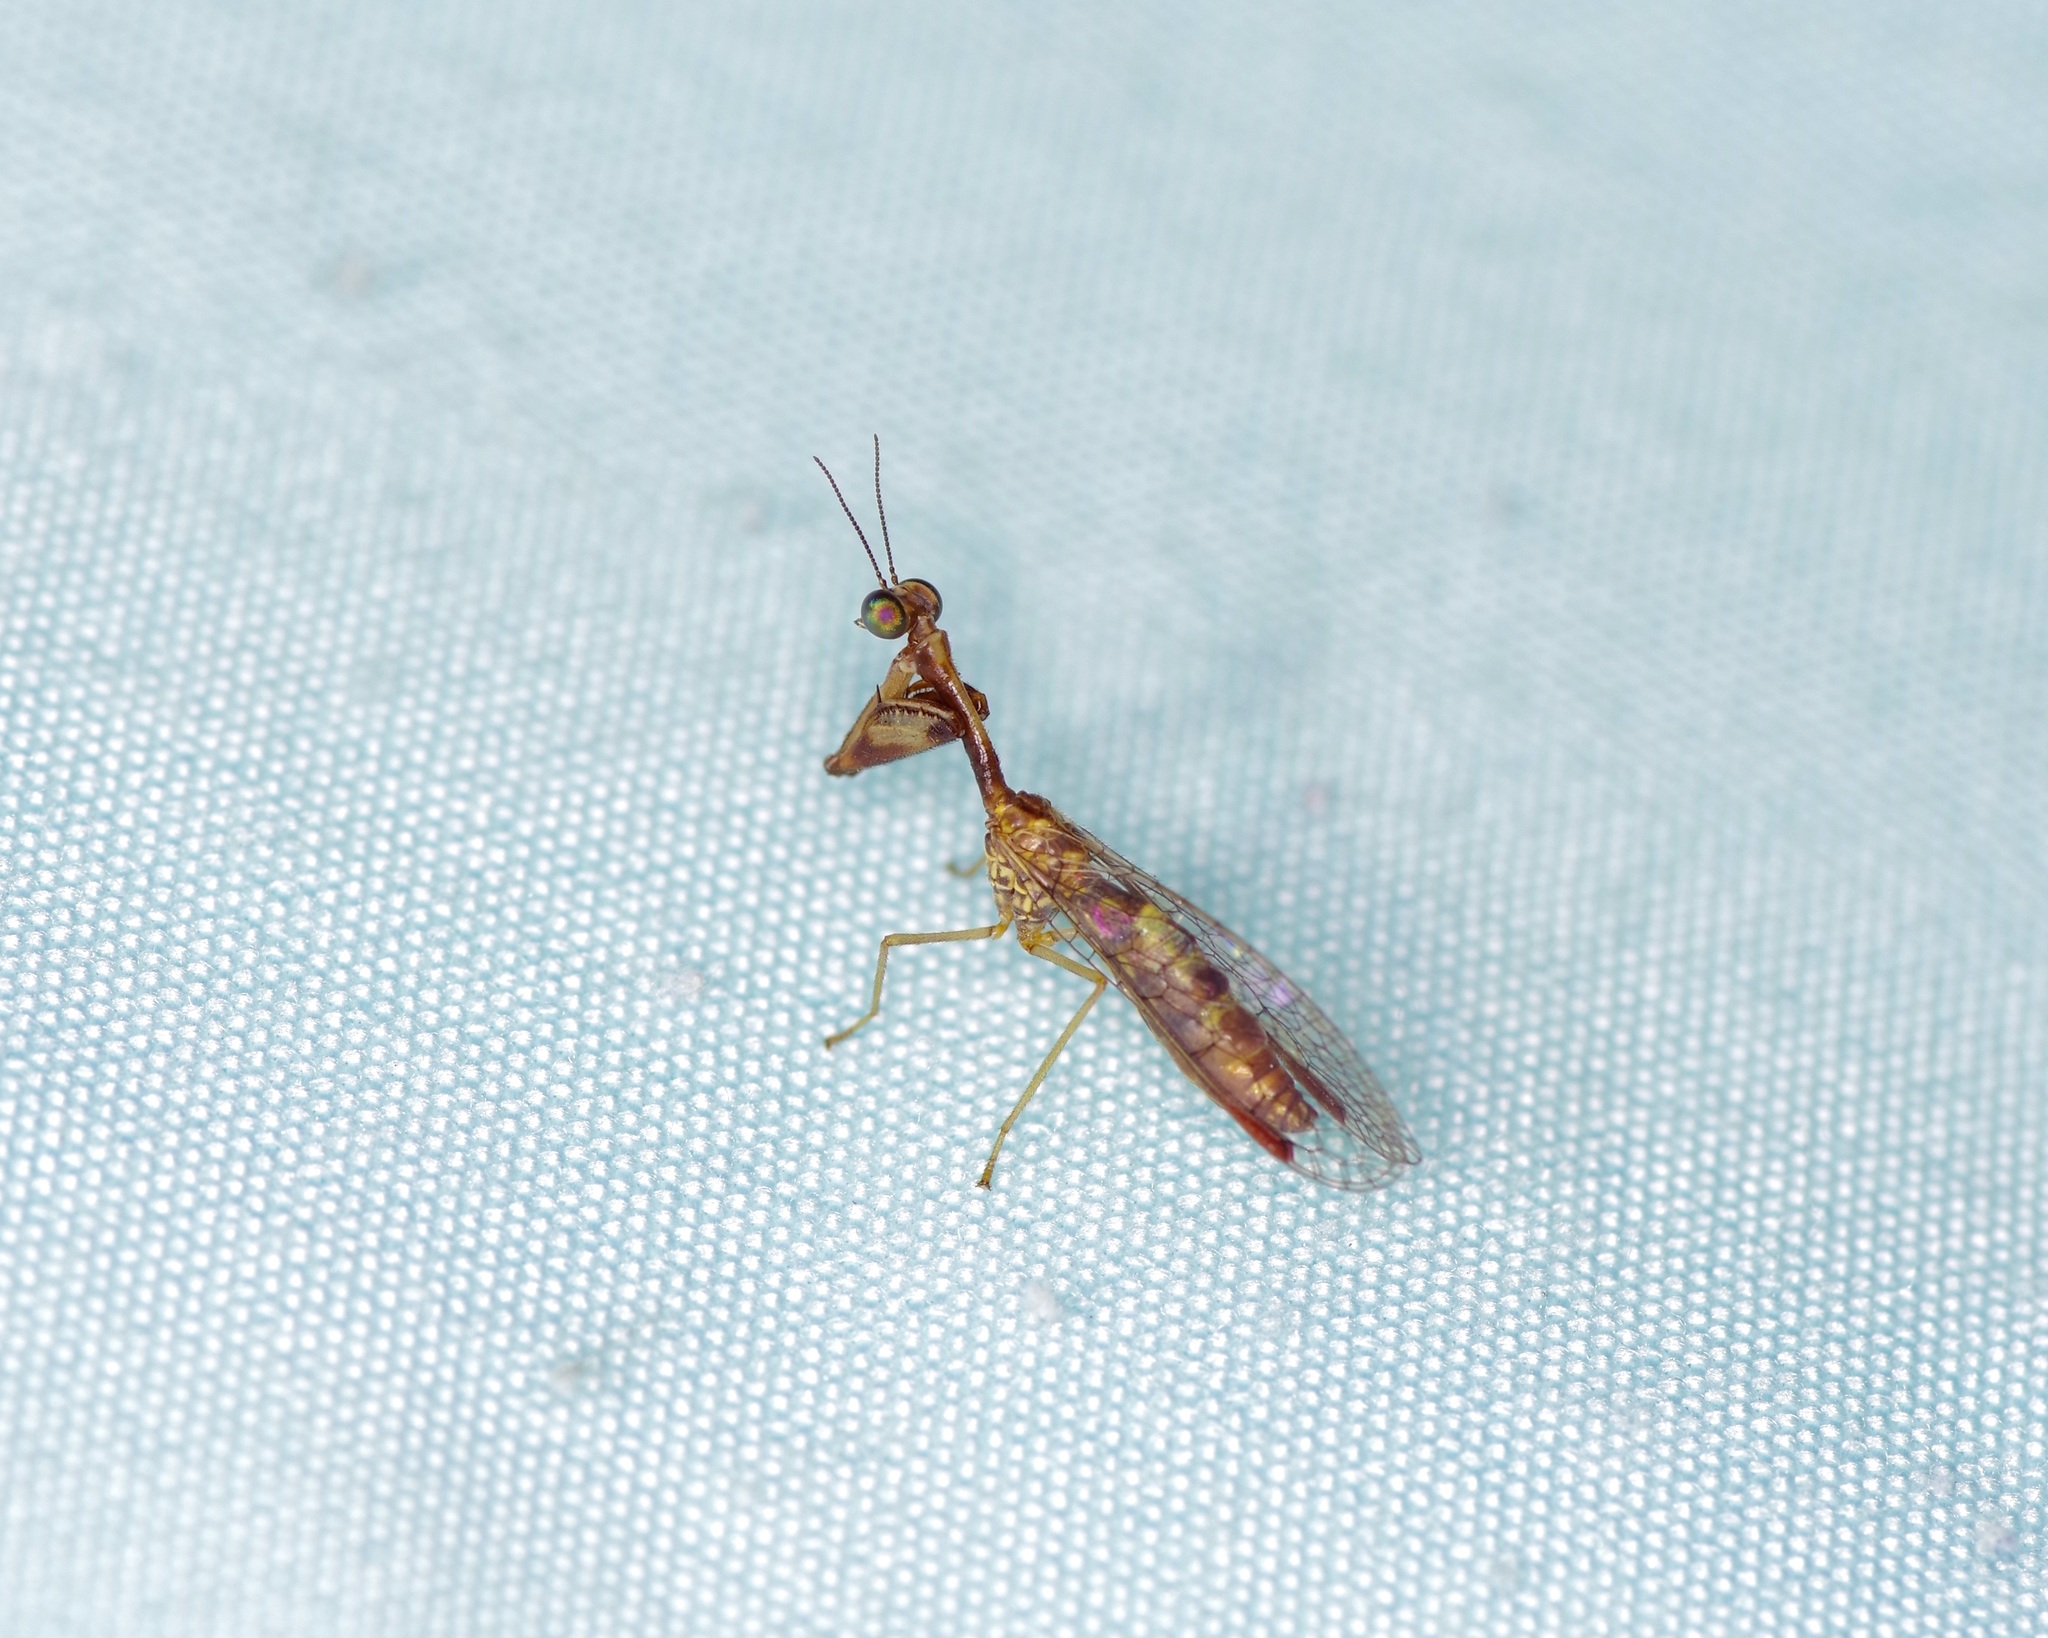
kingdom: Animalia
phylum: Arthropoda
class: Insecta
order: Neuroptera
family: Mantispidae
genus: Leptomantispa
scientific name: Leptomantispa pulchella
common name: Stevens's mantidfly
